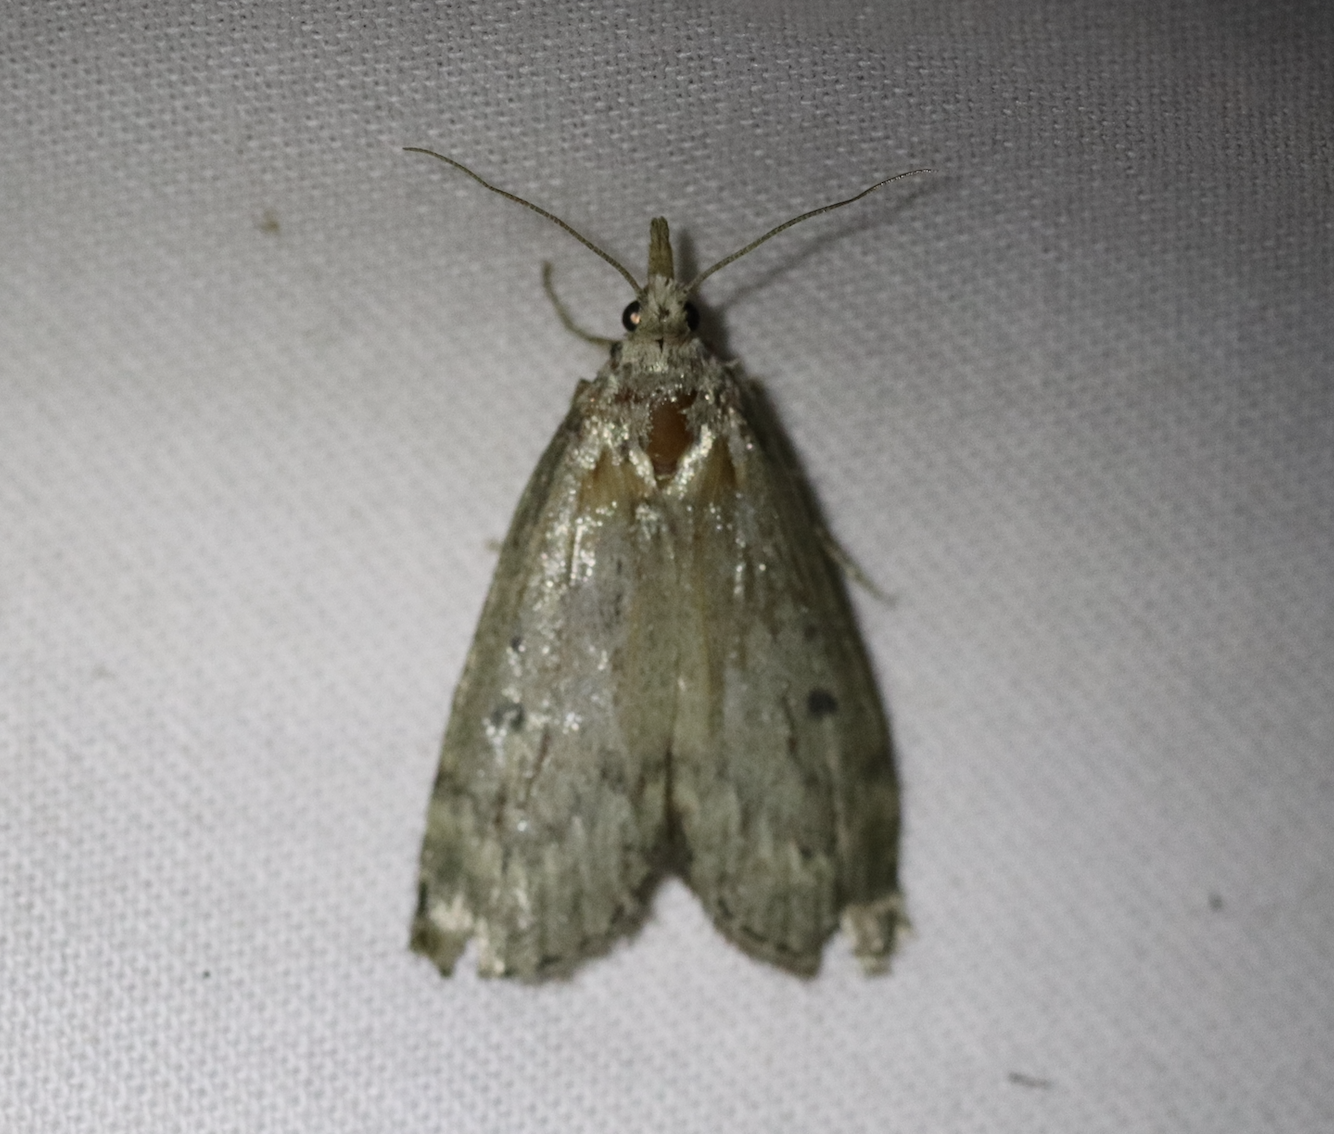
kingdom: Animalia
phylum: Arthropoda
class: Insecta
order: Lepidoptera
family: Pyralidae
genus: Aphomia
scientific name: Aphomia sociella
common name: Bee moth
